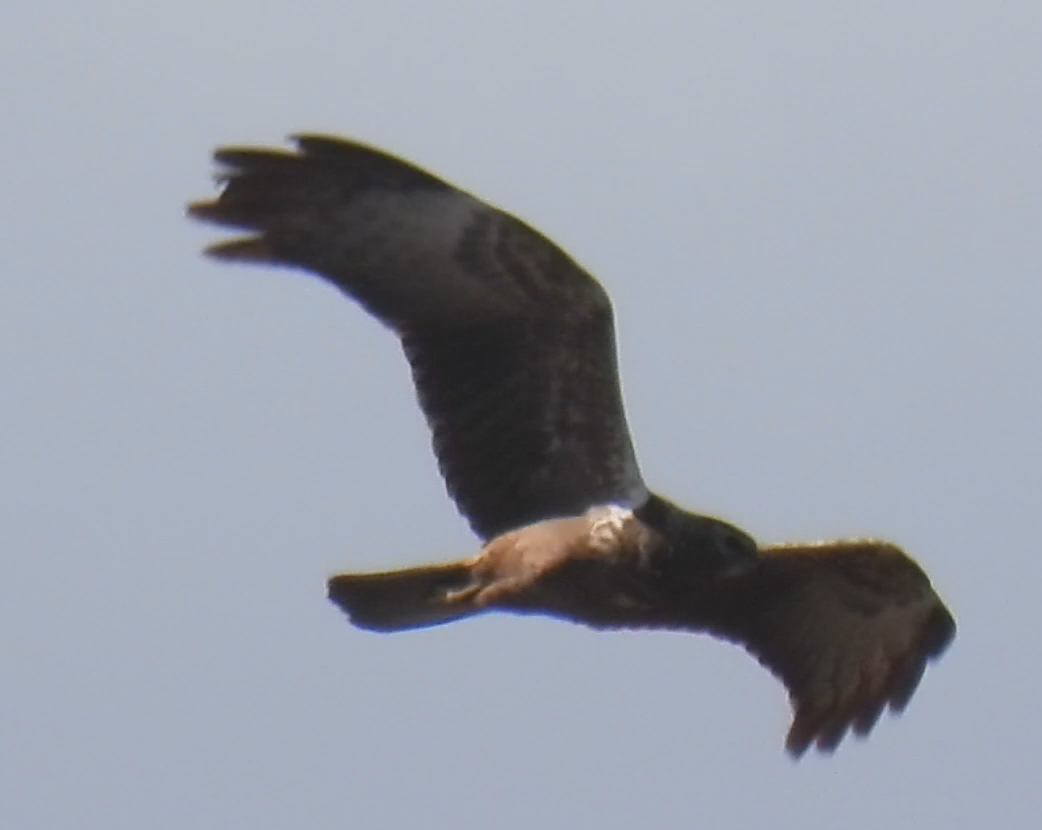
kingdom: Animalia
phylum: Chordata
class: Aves
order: Accipitriformes
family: Accipitridae
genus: Circus
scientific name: Circus ranivorus
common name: African marsh-harrier
